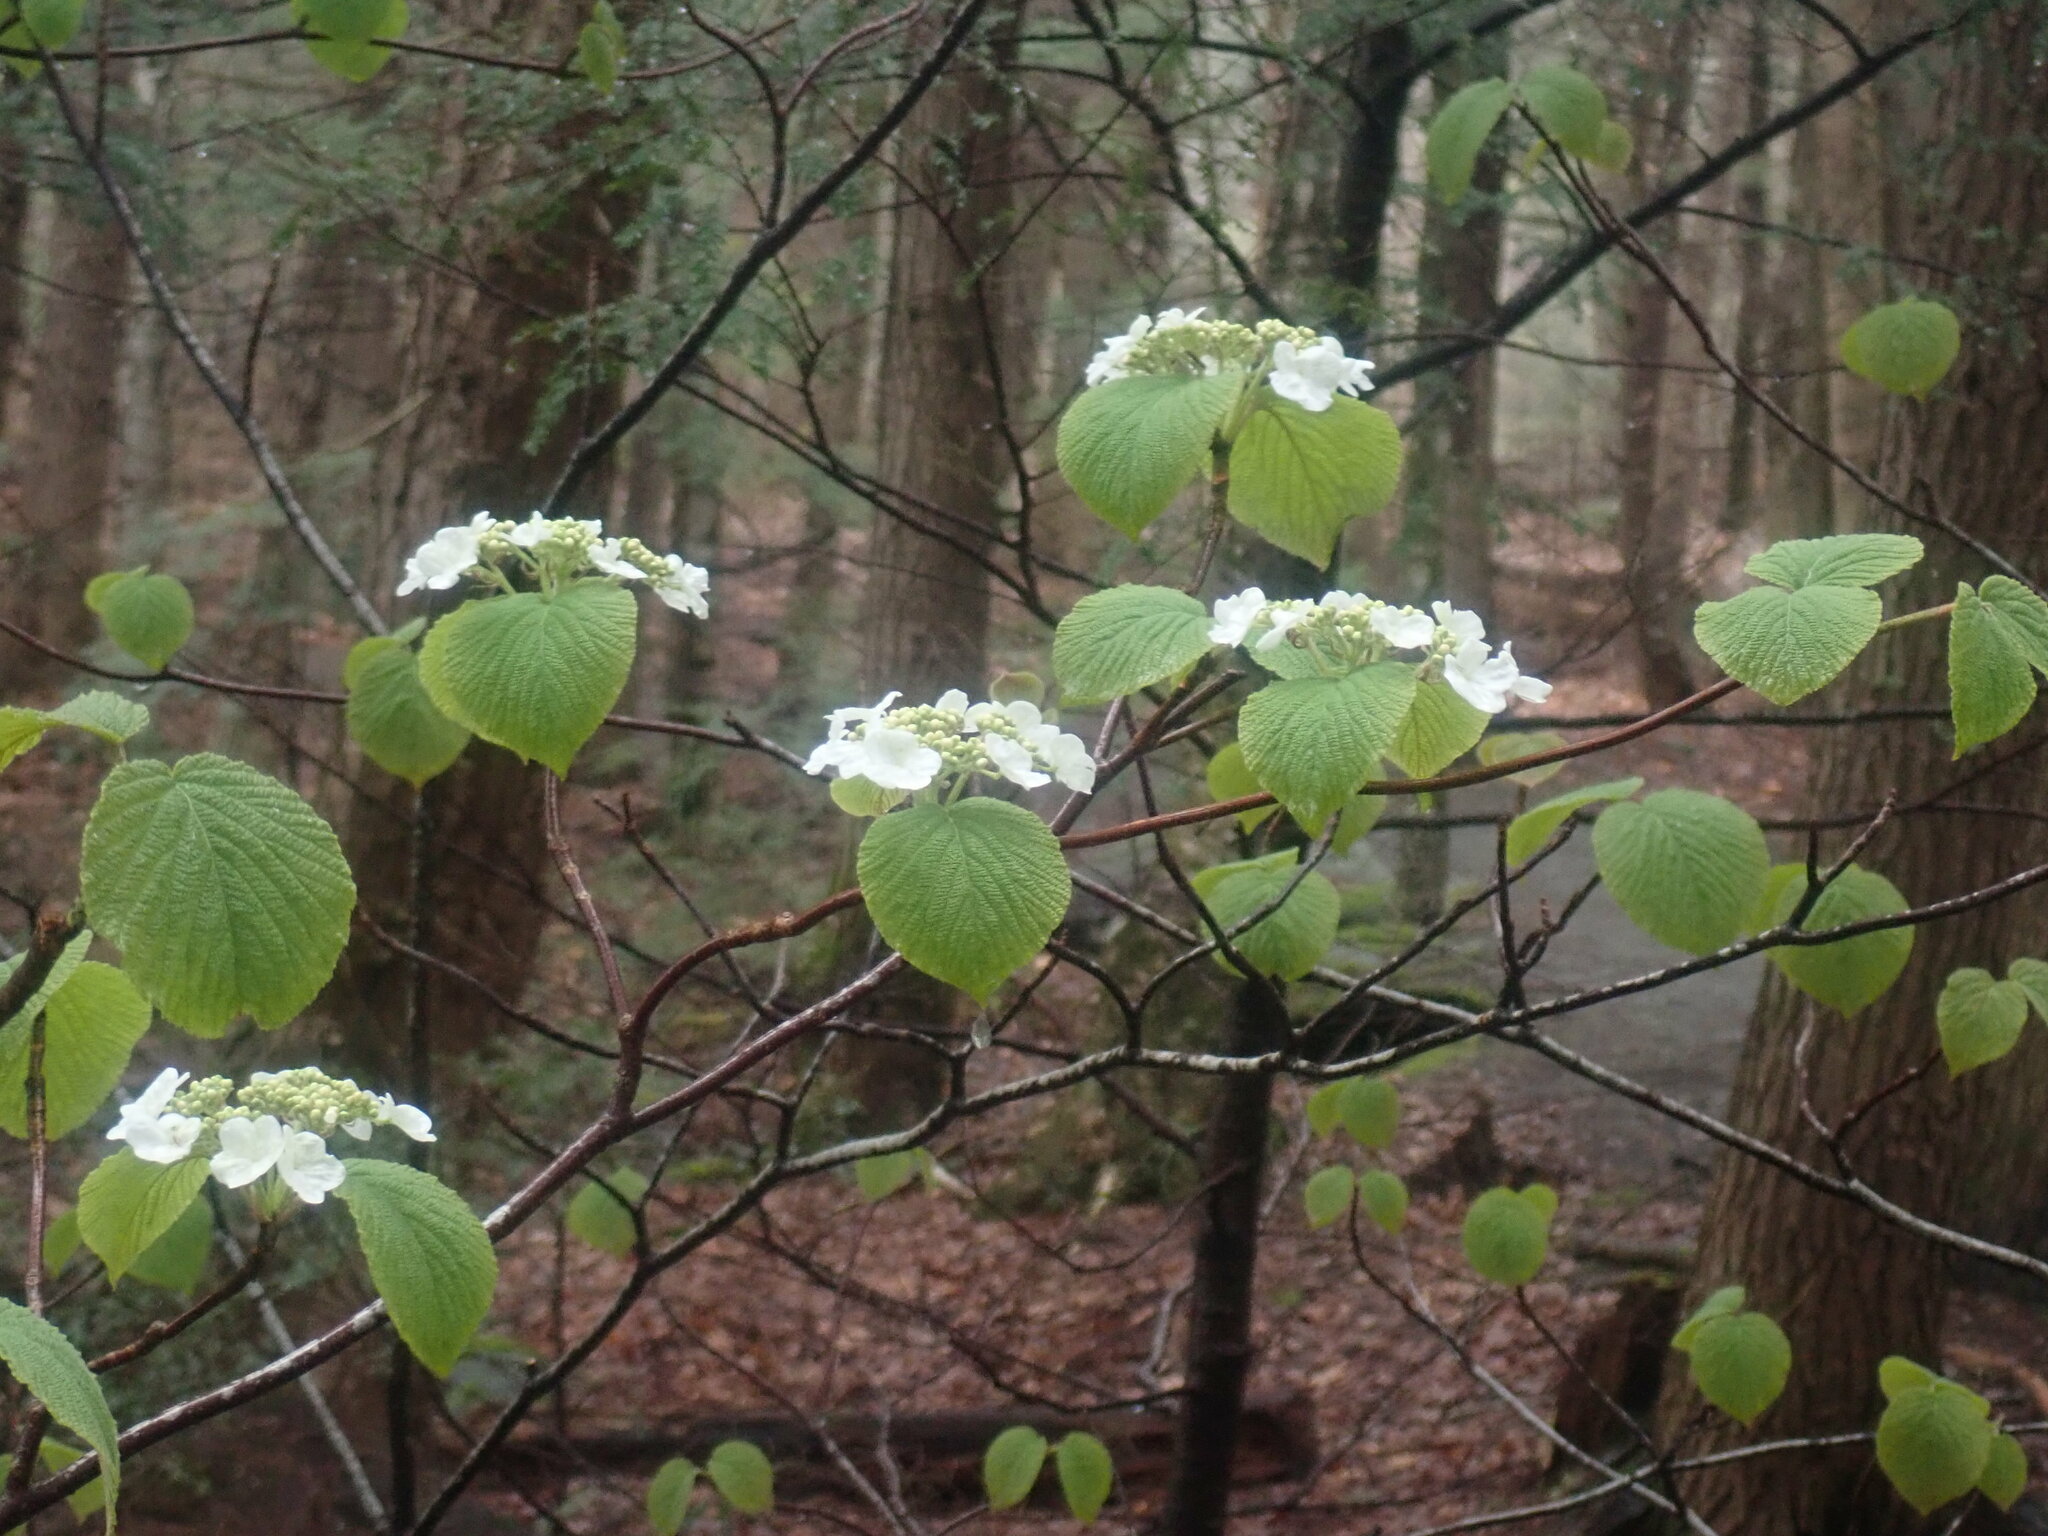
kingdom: Plantae
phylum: Tracheophyta
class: Magnoliopsida
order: Dipsacales
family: Viburnaceae
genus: Viburnum
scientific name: Viburnum lantanoides
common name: Hobblebush
